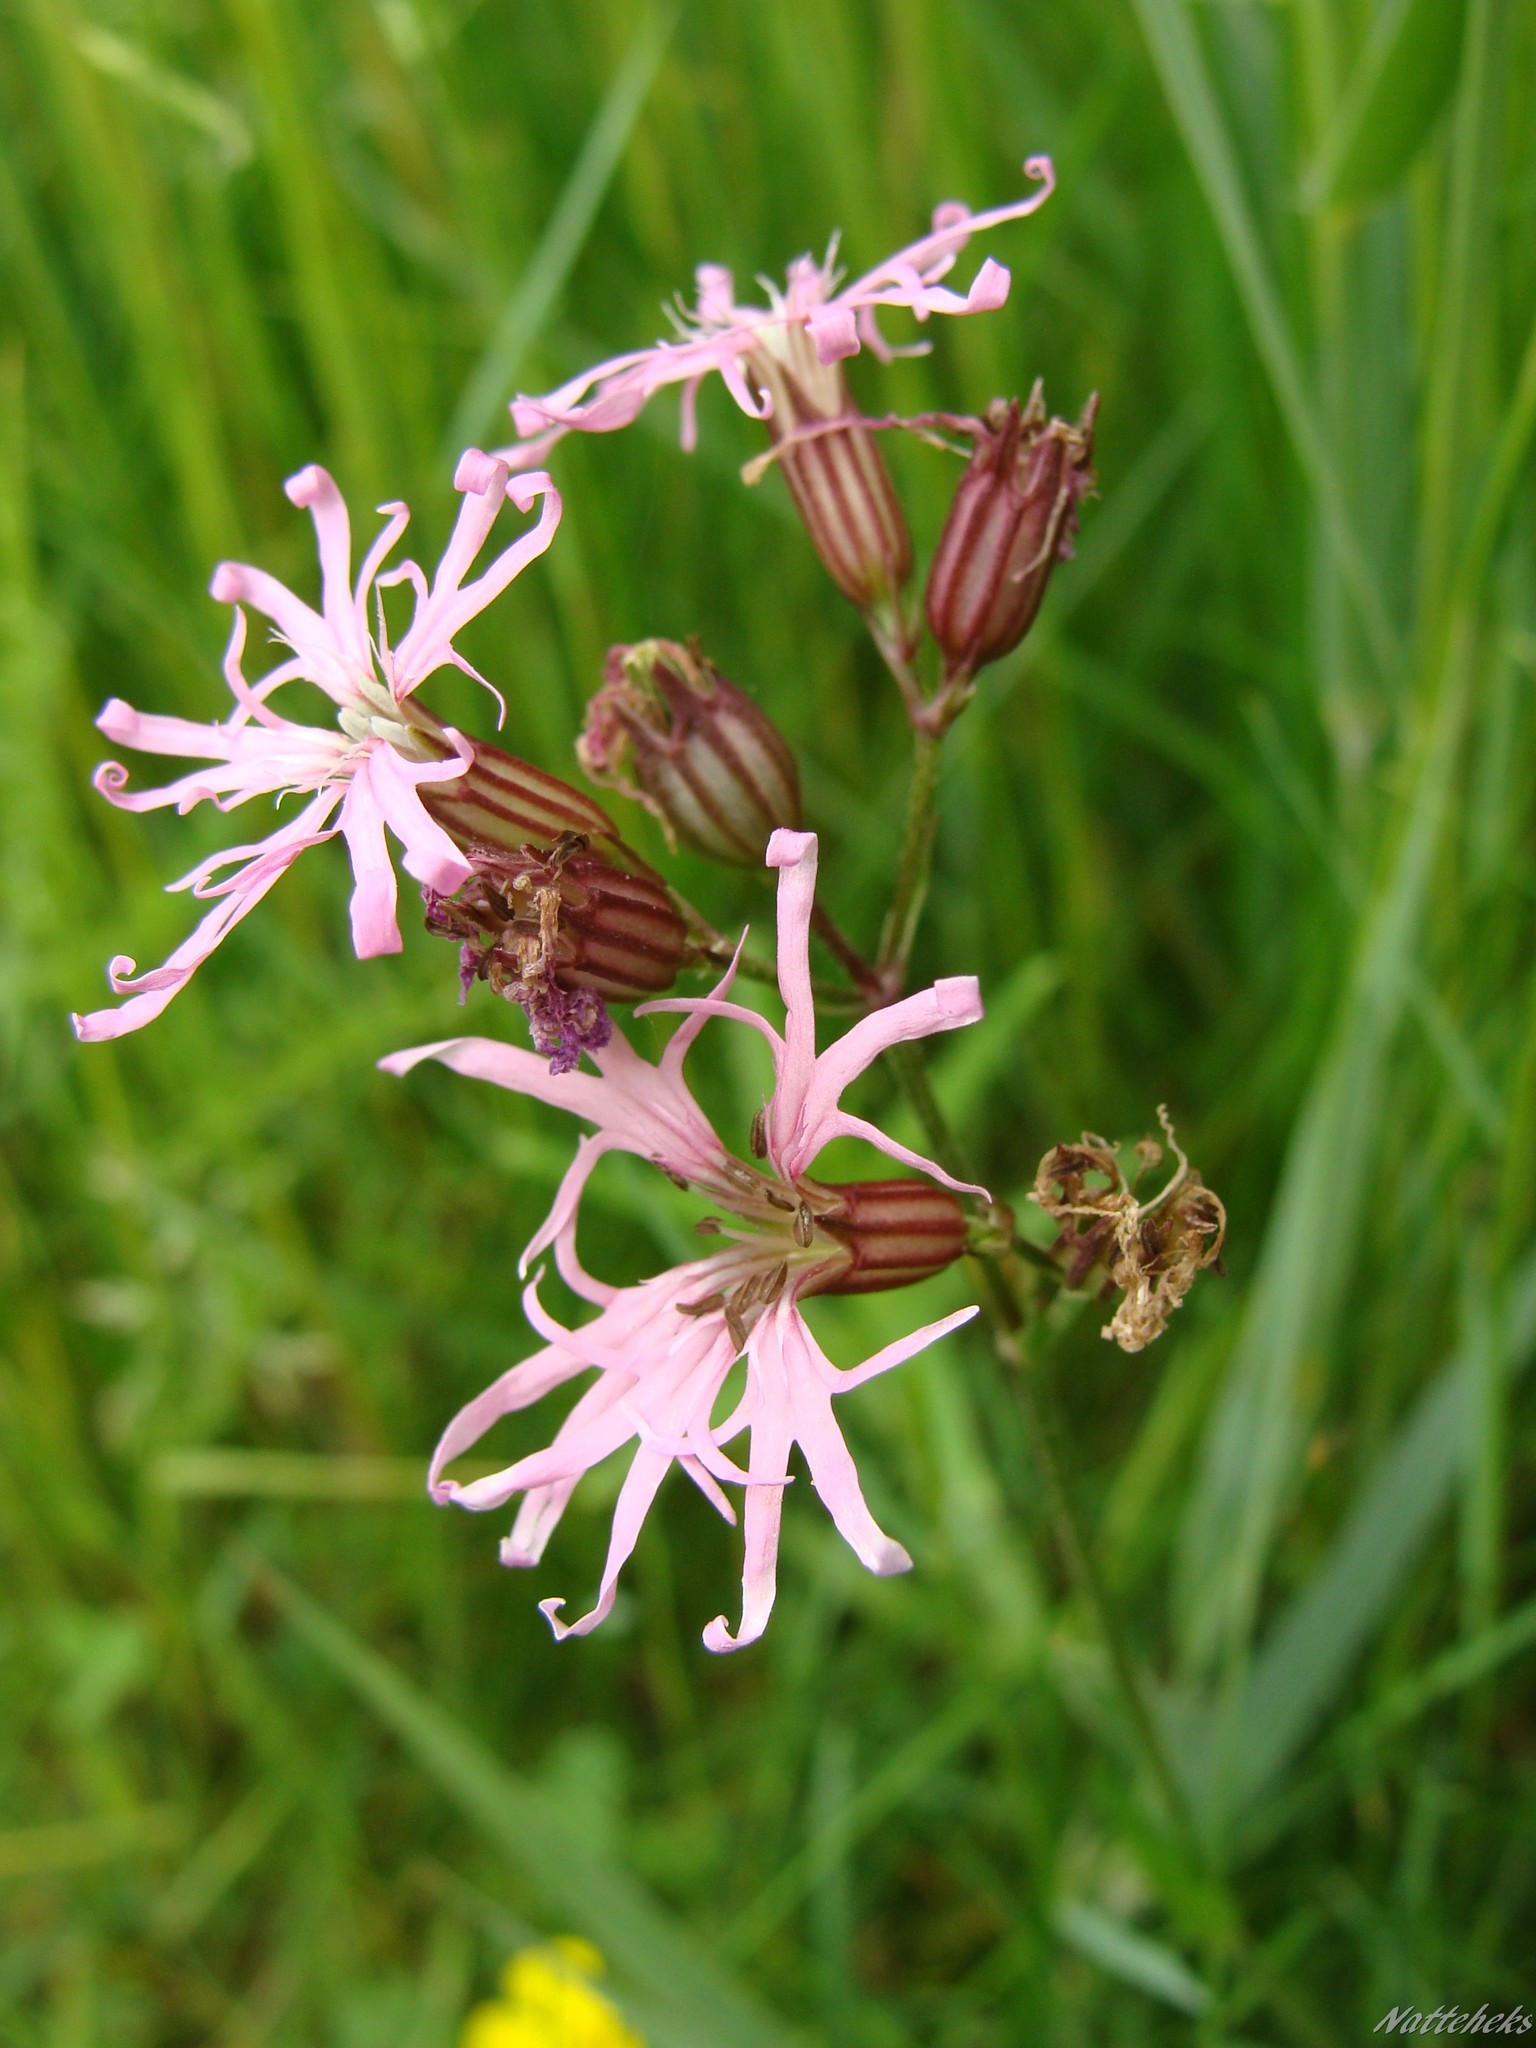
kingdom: Plantae
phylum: Tracheophyta
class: Magnoliopsida
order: Caryophyllales
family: Caryophyllaceae
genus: Silene
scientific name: Silene flos-cuculi
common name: Ragged-robin
